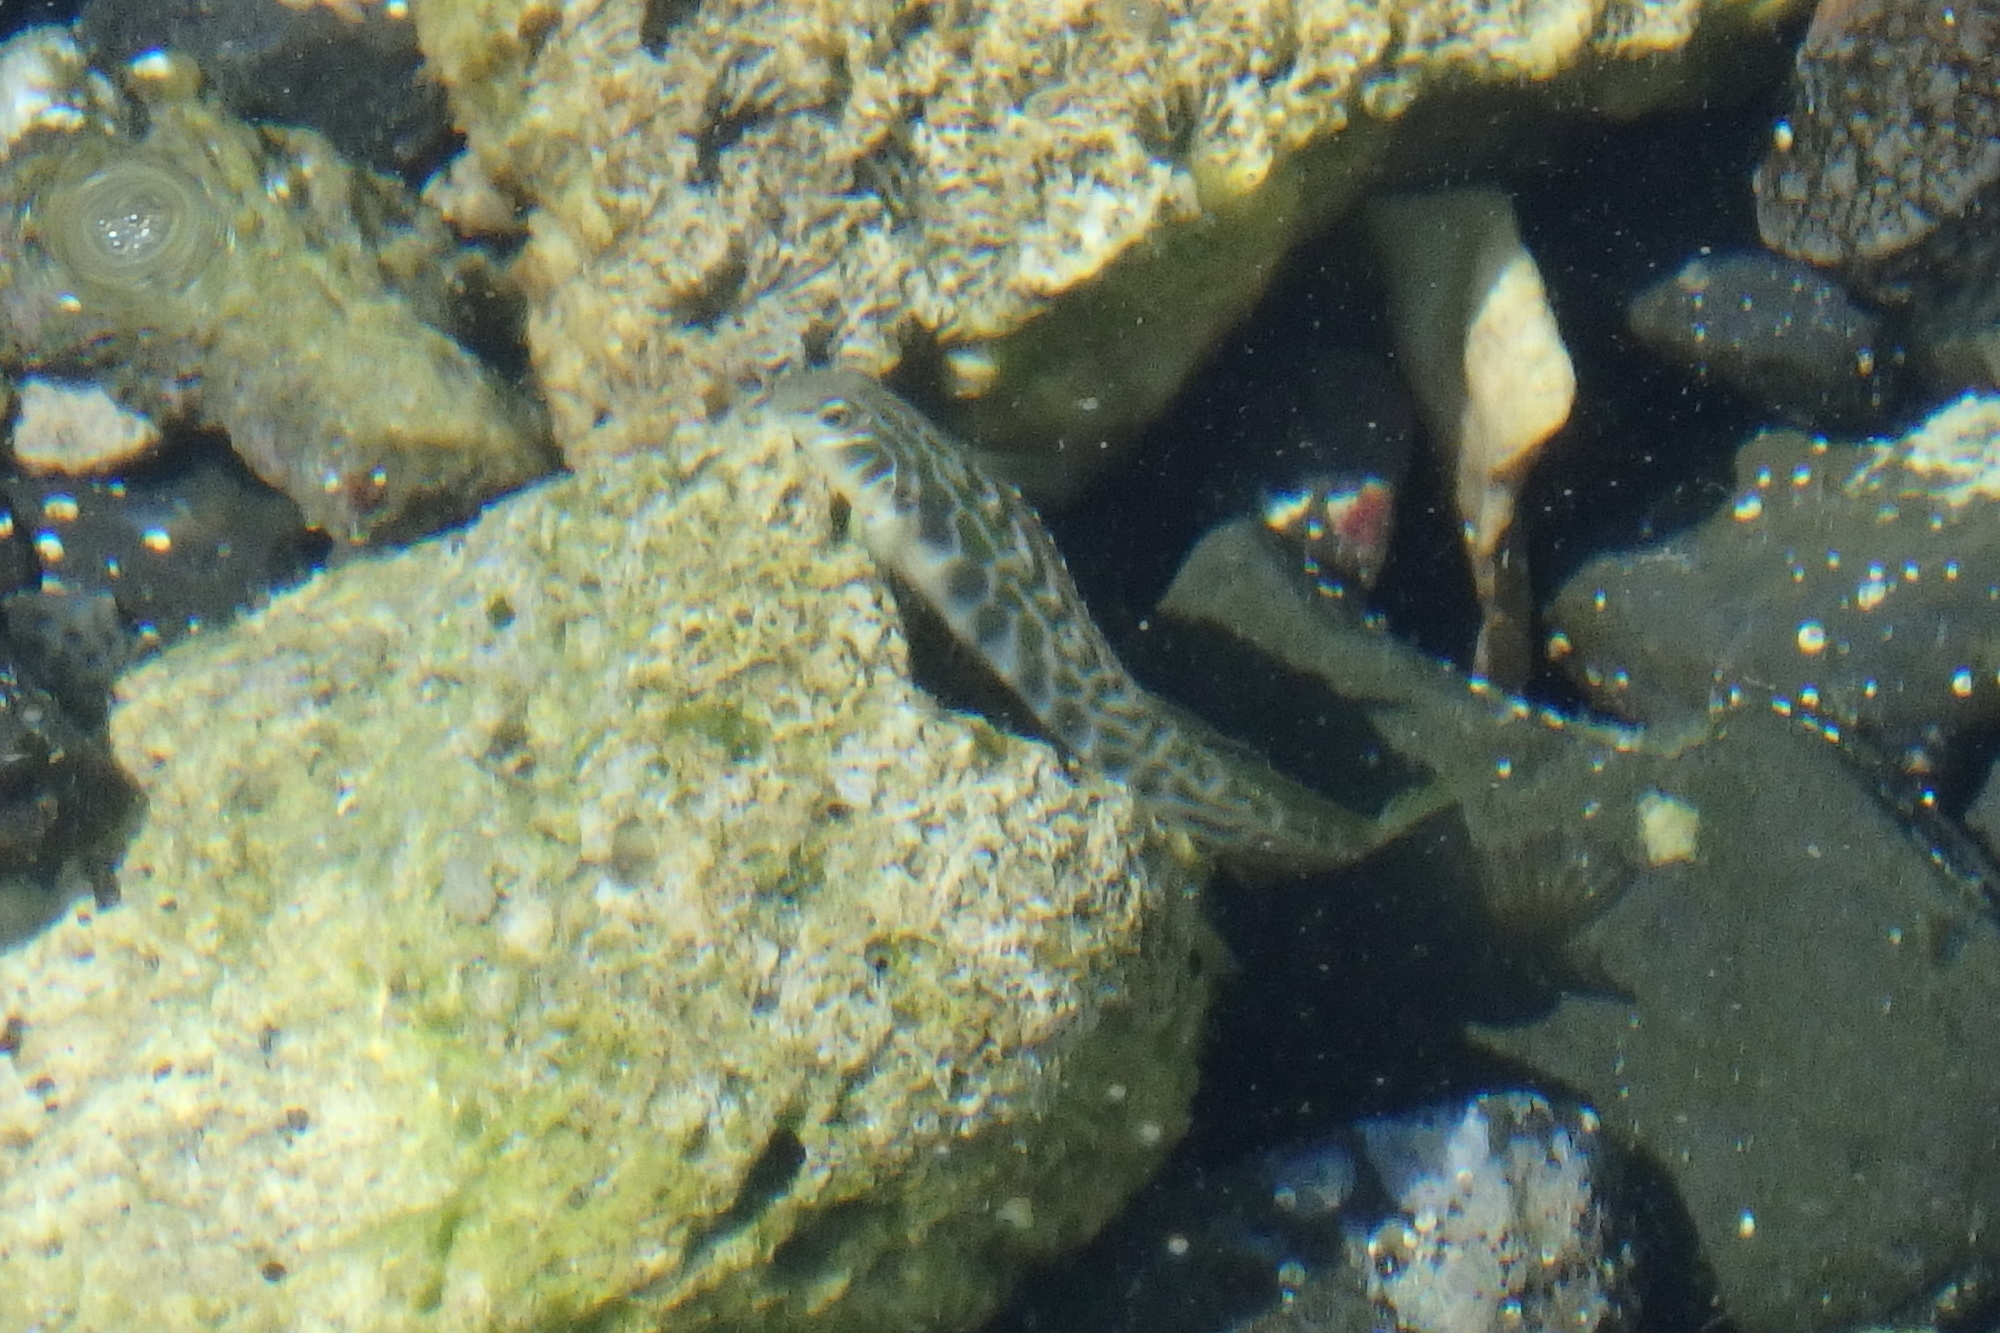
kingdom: Animalia
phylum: Chordata
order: Perciformes
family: Blenniidae
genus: Omobranchus
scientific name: Omobranchus loxozonus
